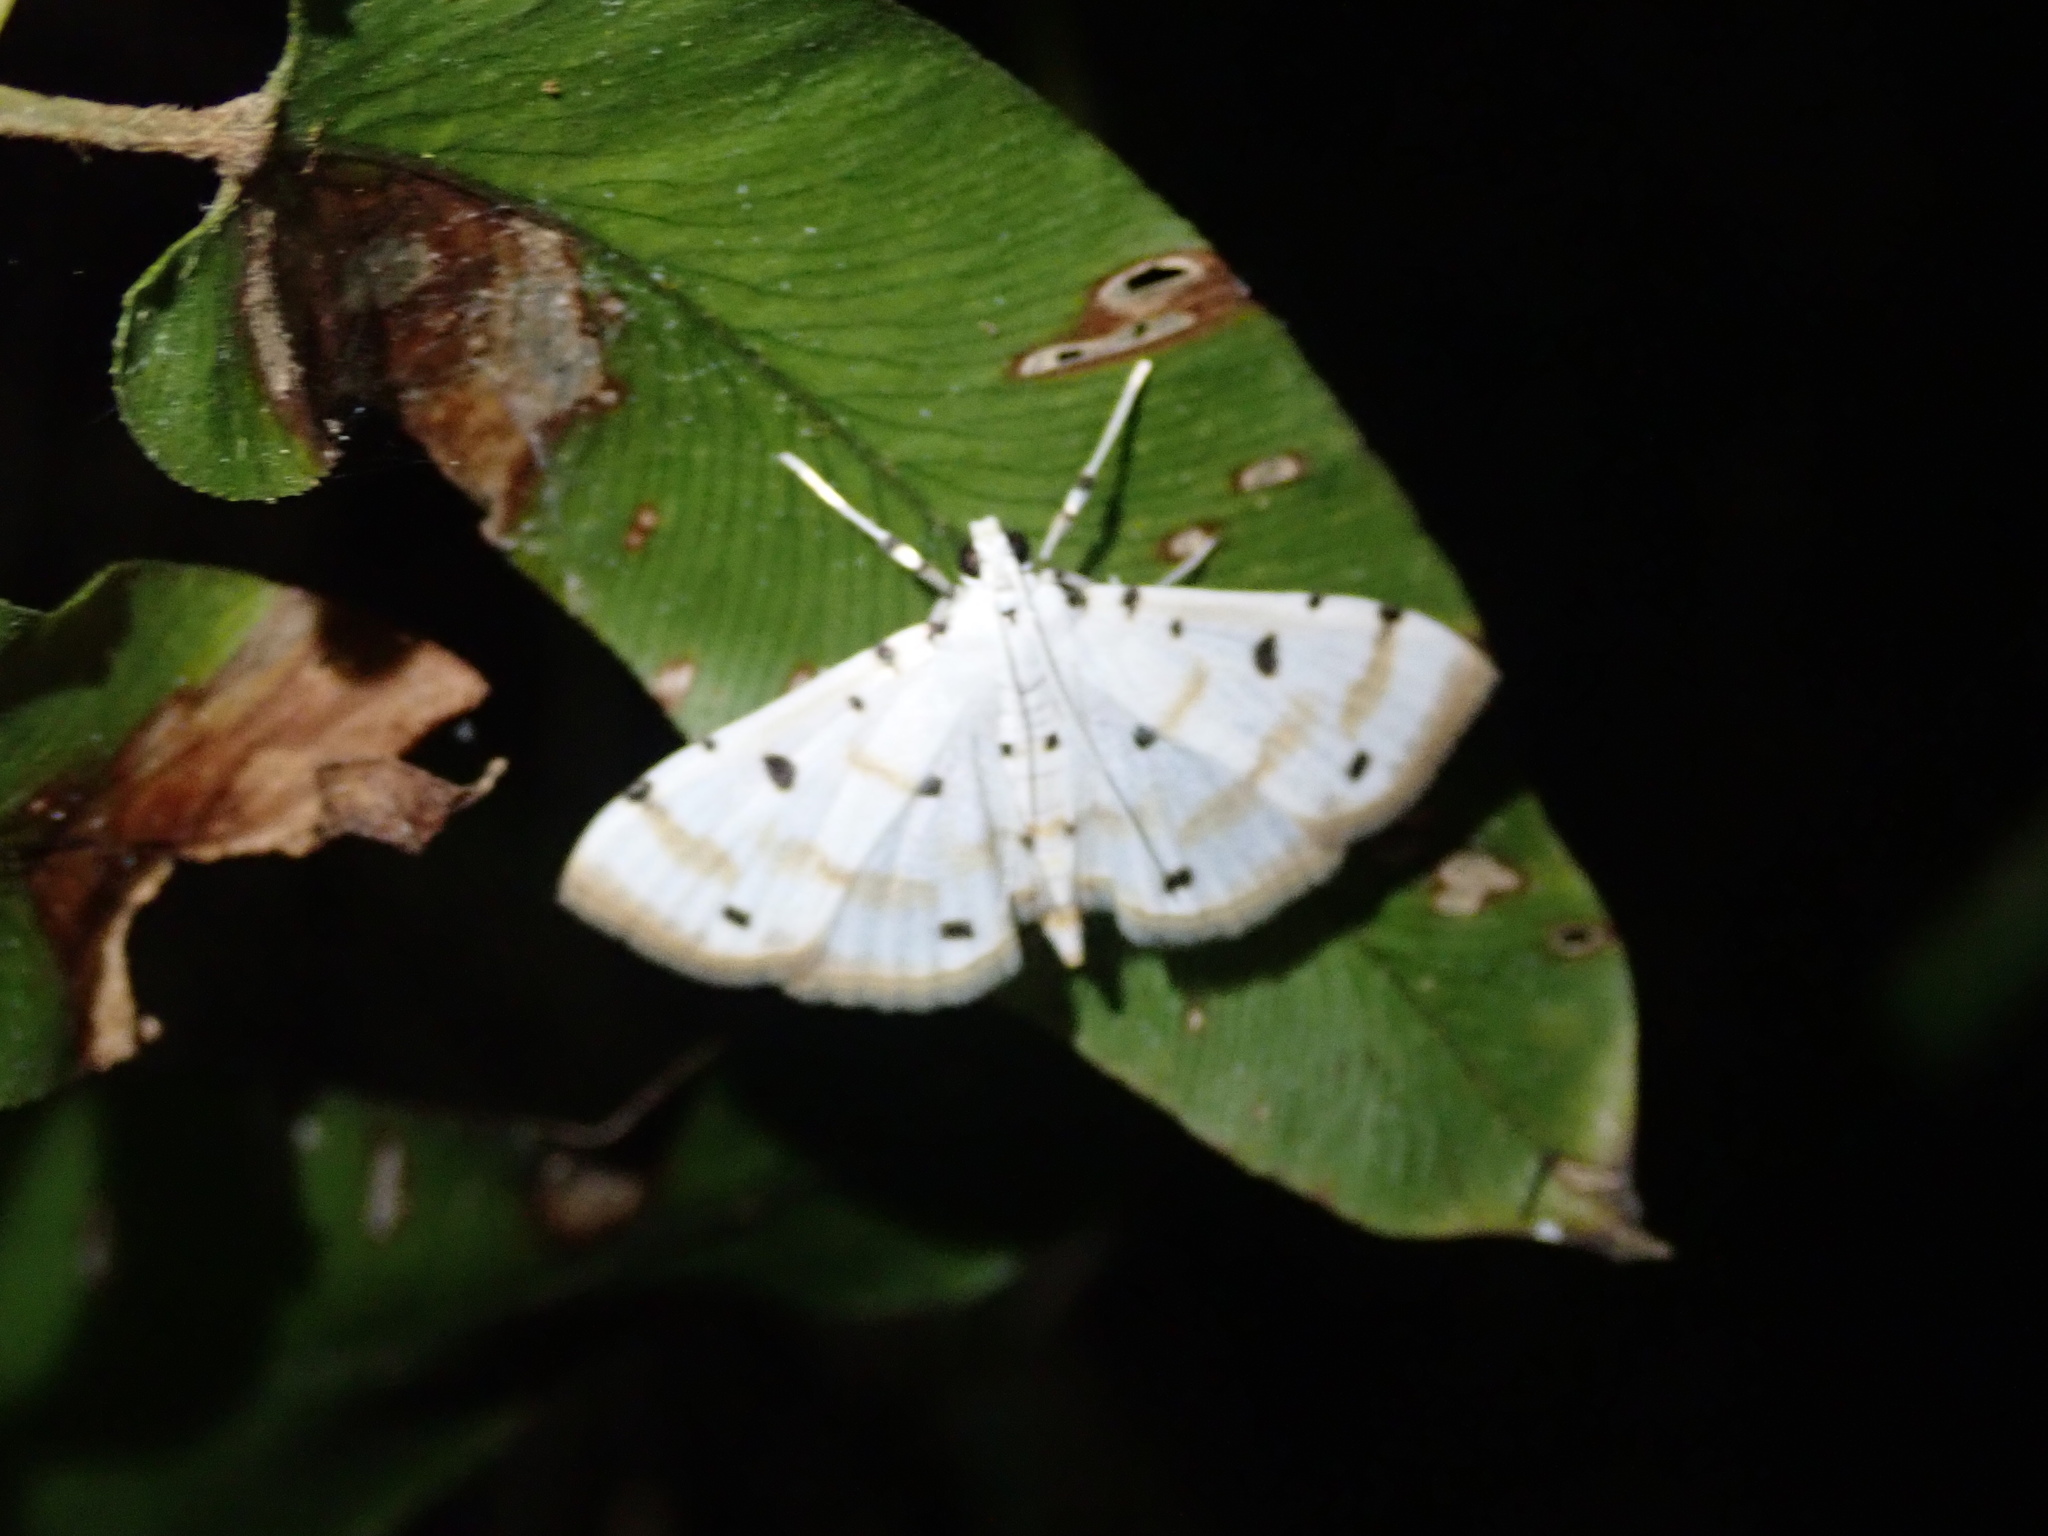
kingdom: Animalia
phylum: Arthropoda
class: Insecta
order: Lepidoptera
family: Crambidae
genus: Pycnarmon
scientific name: Pycnarmon lactiferalis
